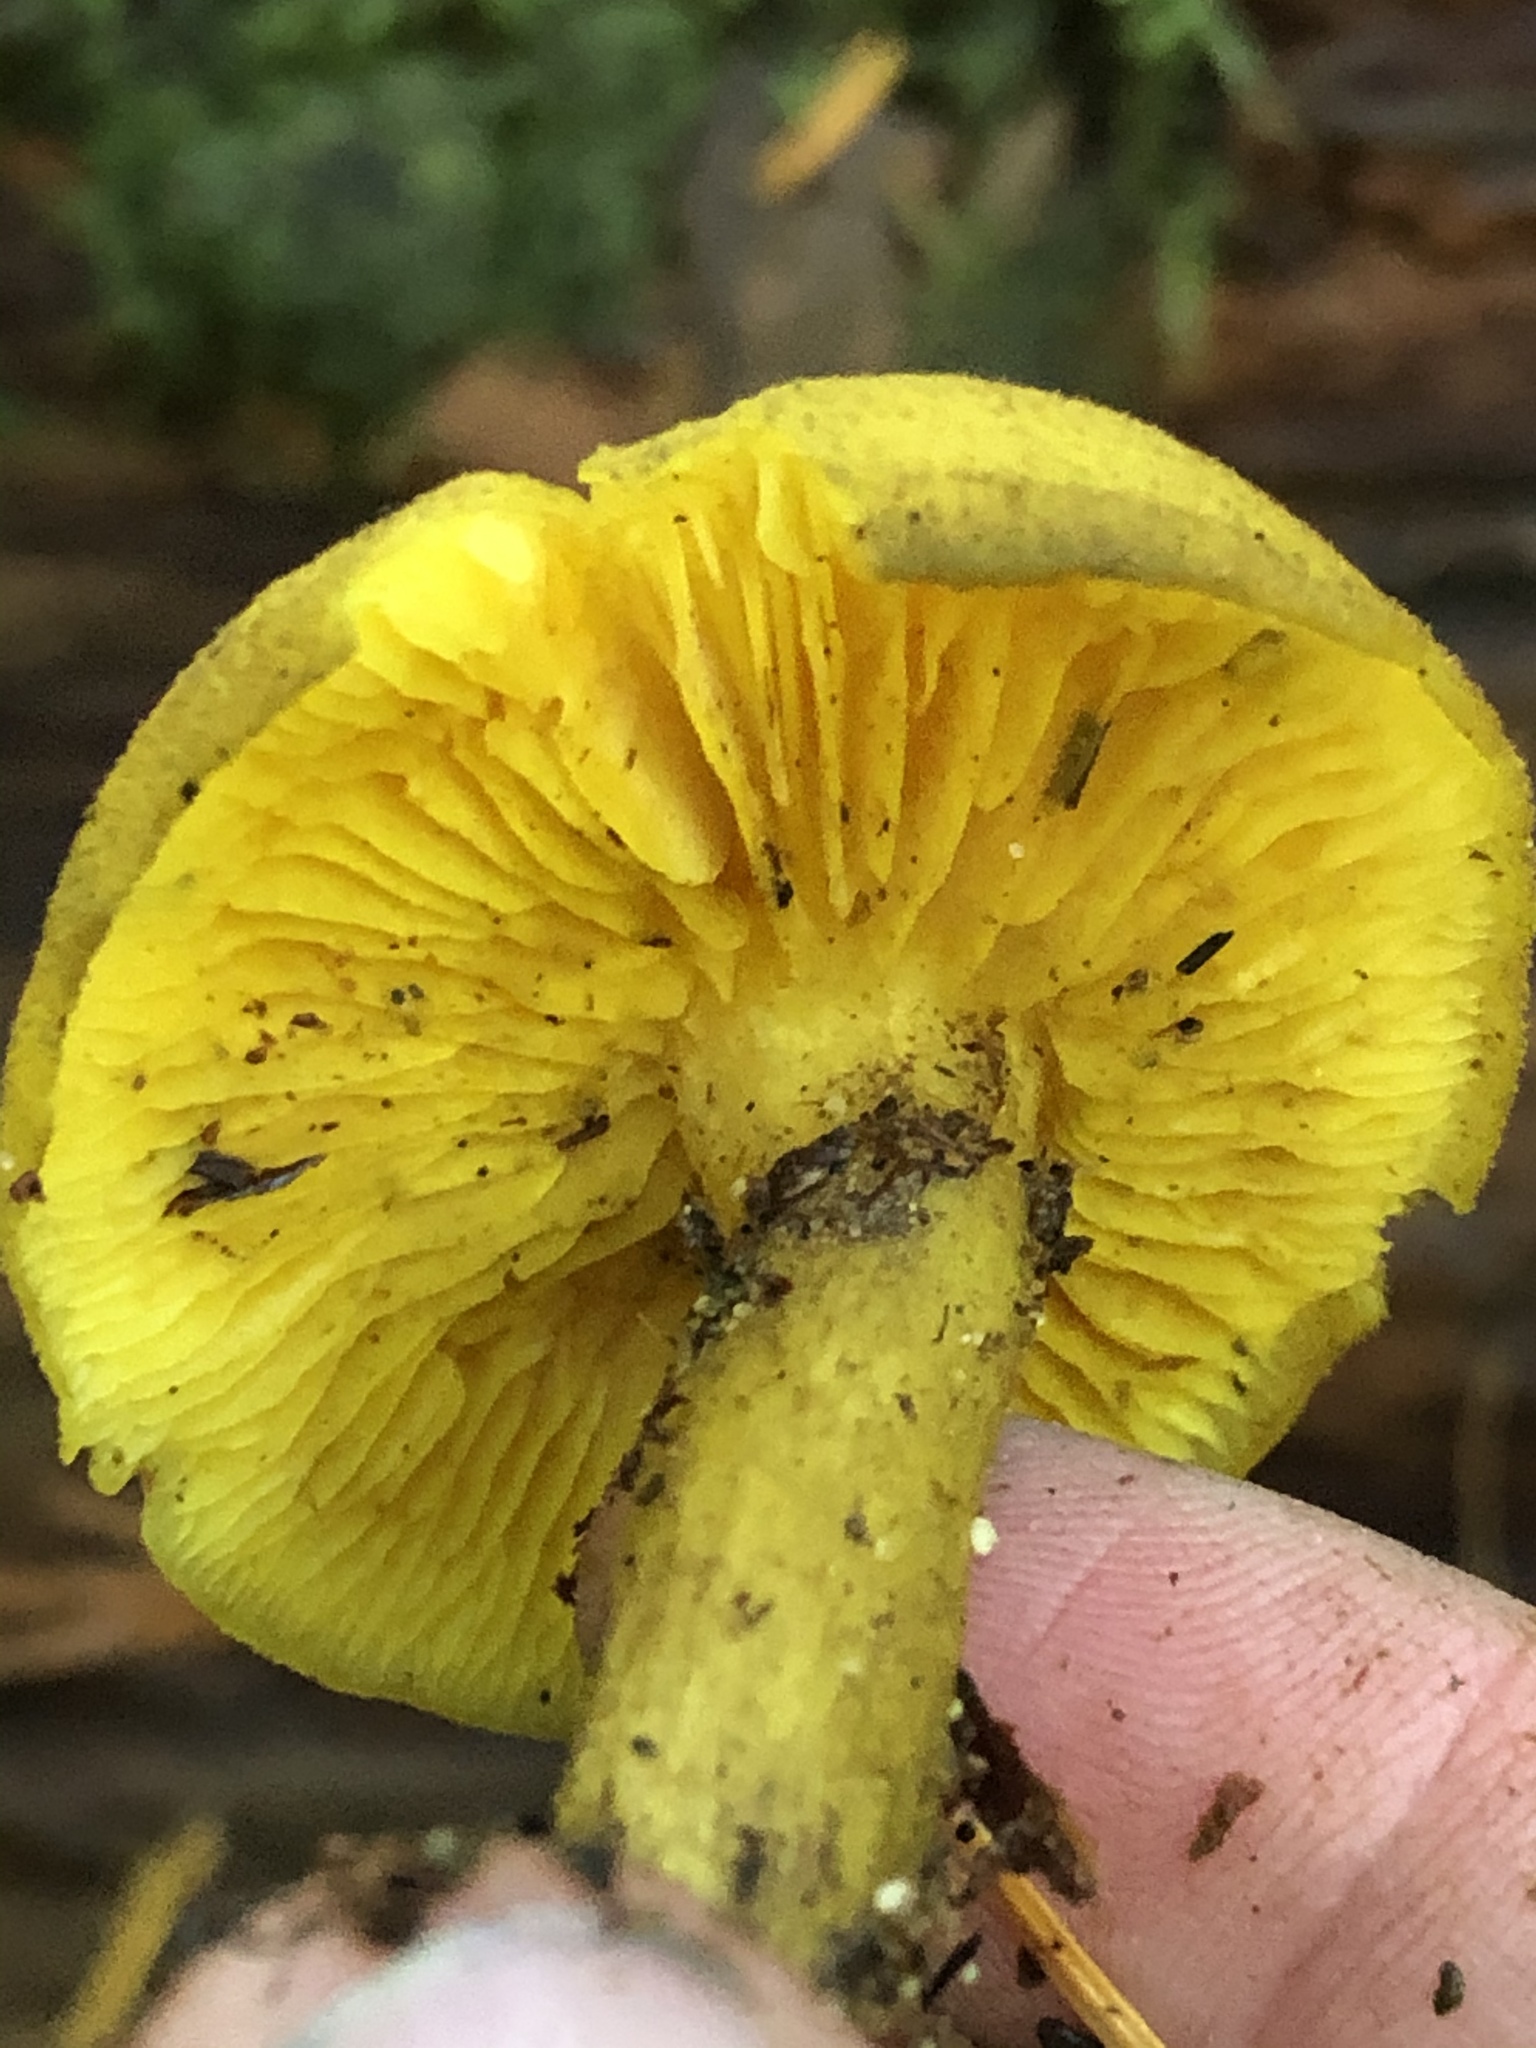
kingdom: Fungi
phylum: Basidiomycota
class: Agaricomycetes
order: Agaricales
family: Tricholomataceae
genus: Tricholomopsis
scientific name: Tricholomopsis decora
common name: Prunes and custard
